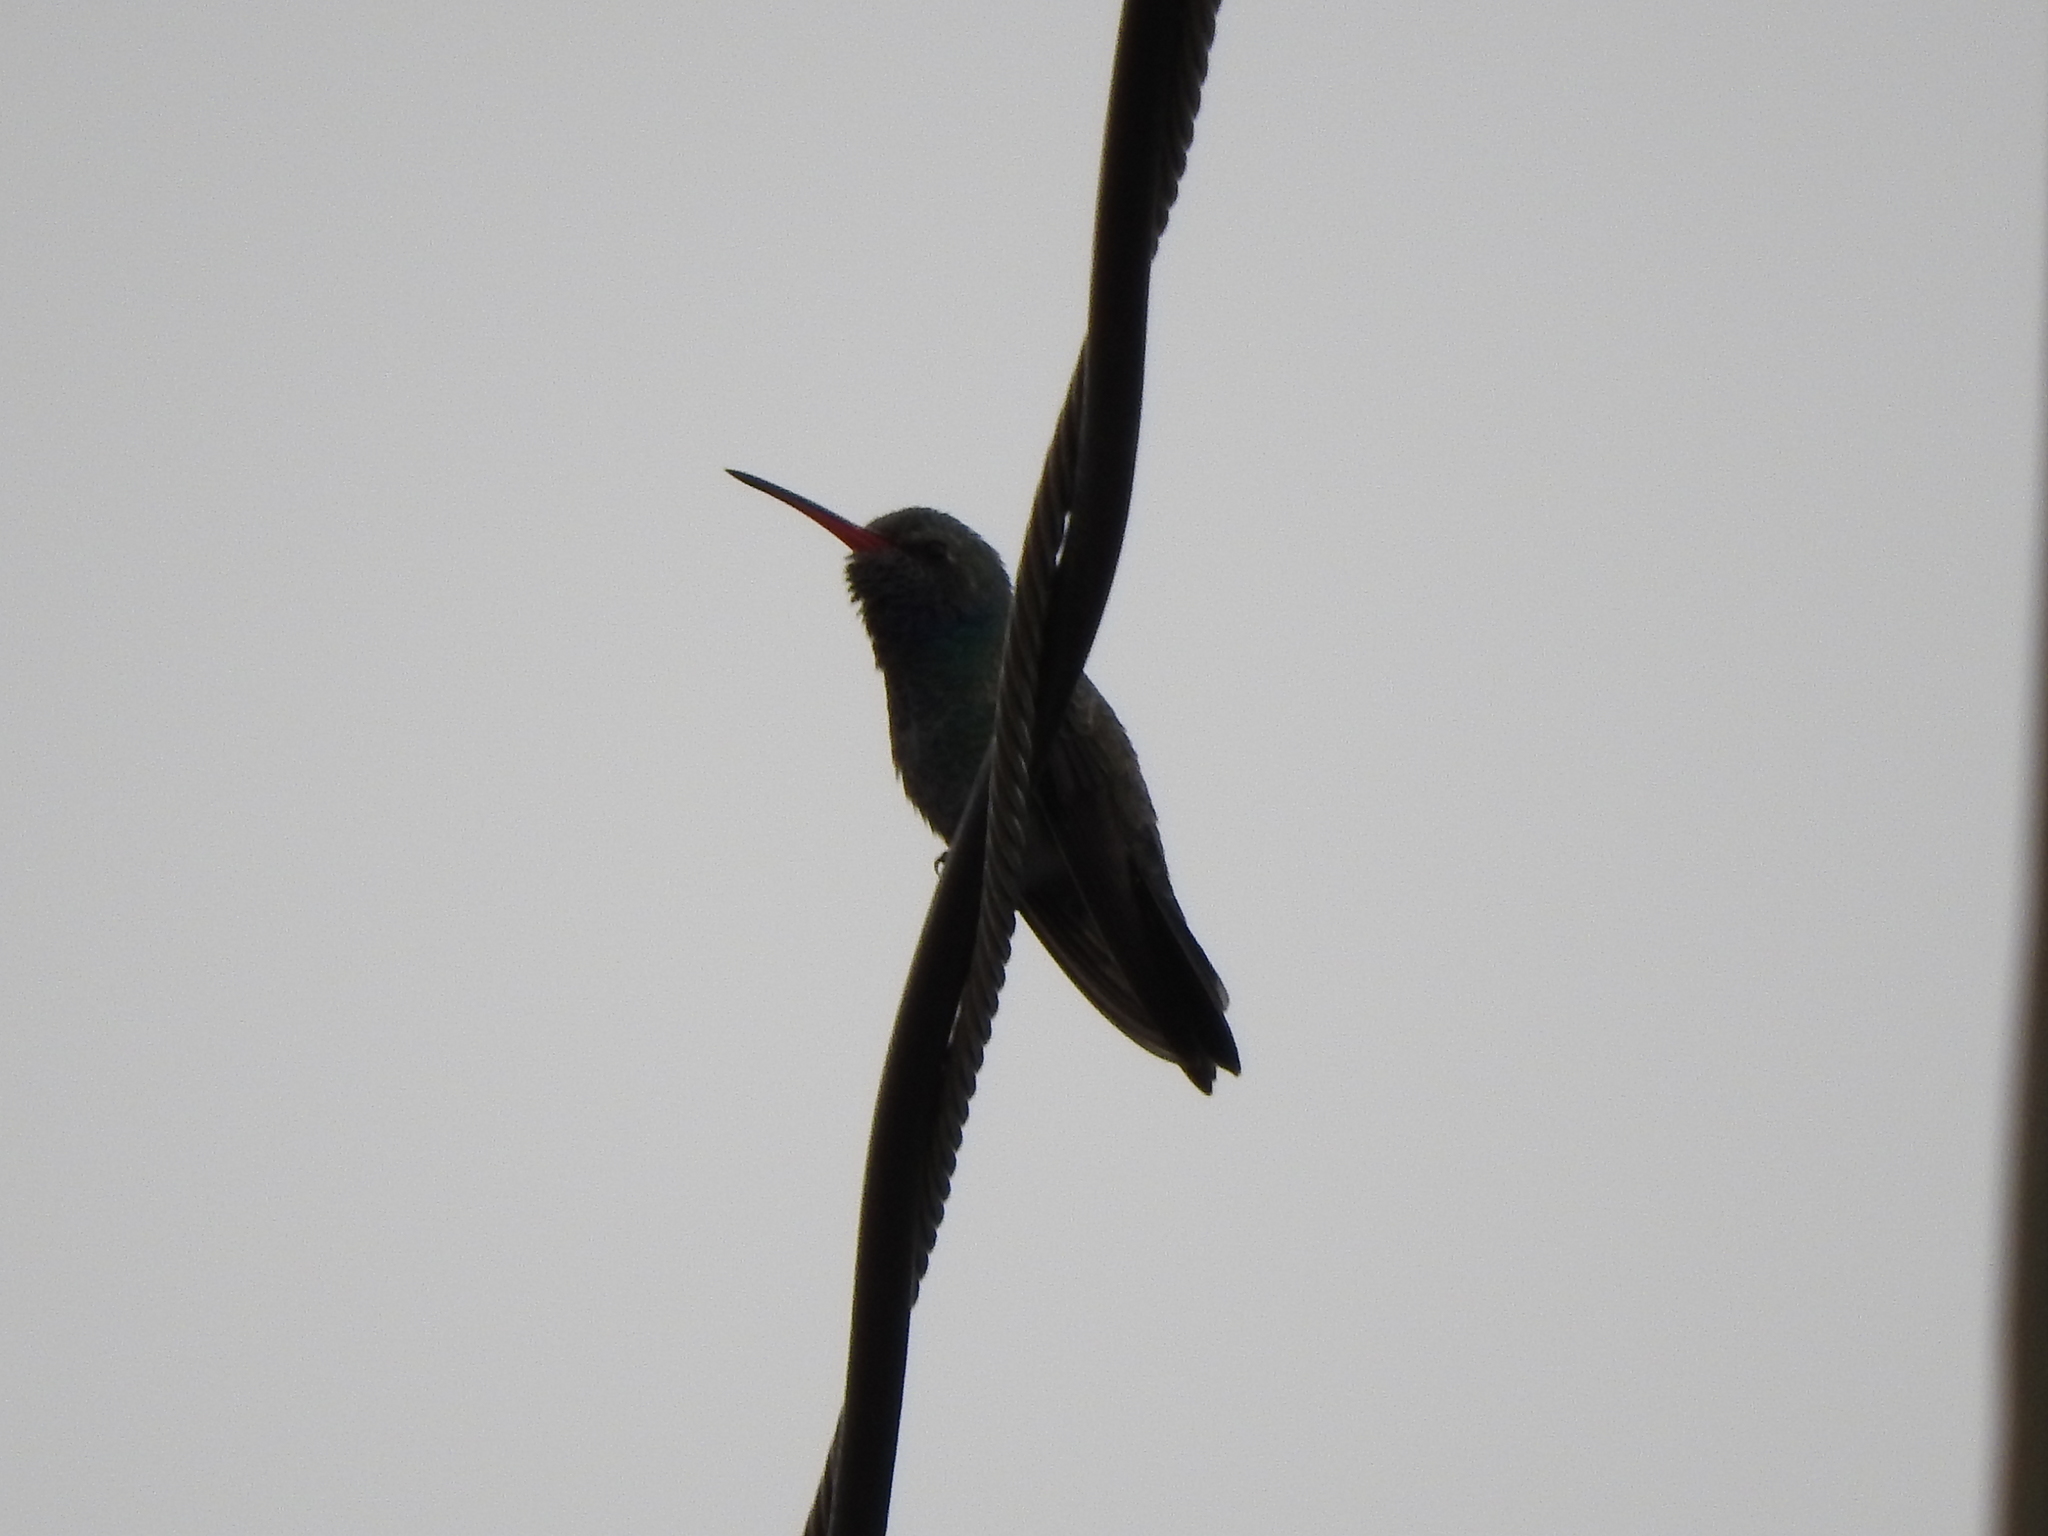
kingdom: Animalia
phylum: Chordata
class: Aves
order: Apodiformes
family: Trochilidae
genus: Cynanthus
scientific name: Cynanthus latirostris
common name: Broad-billed hummingbird
